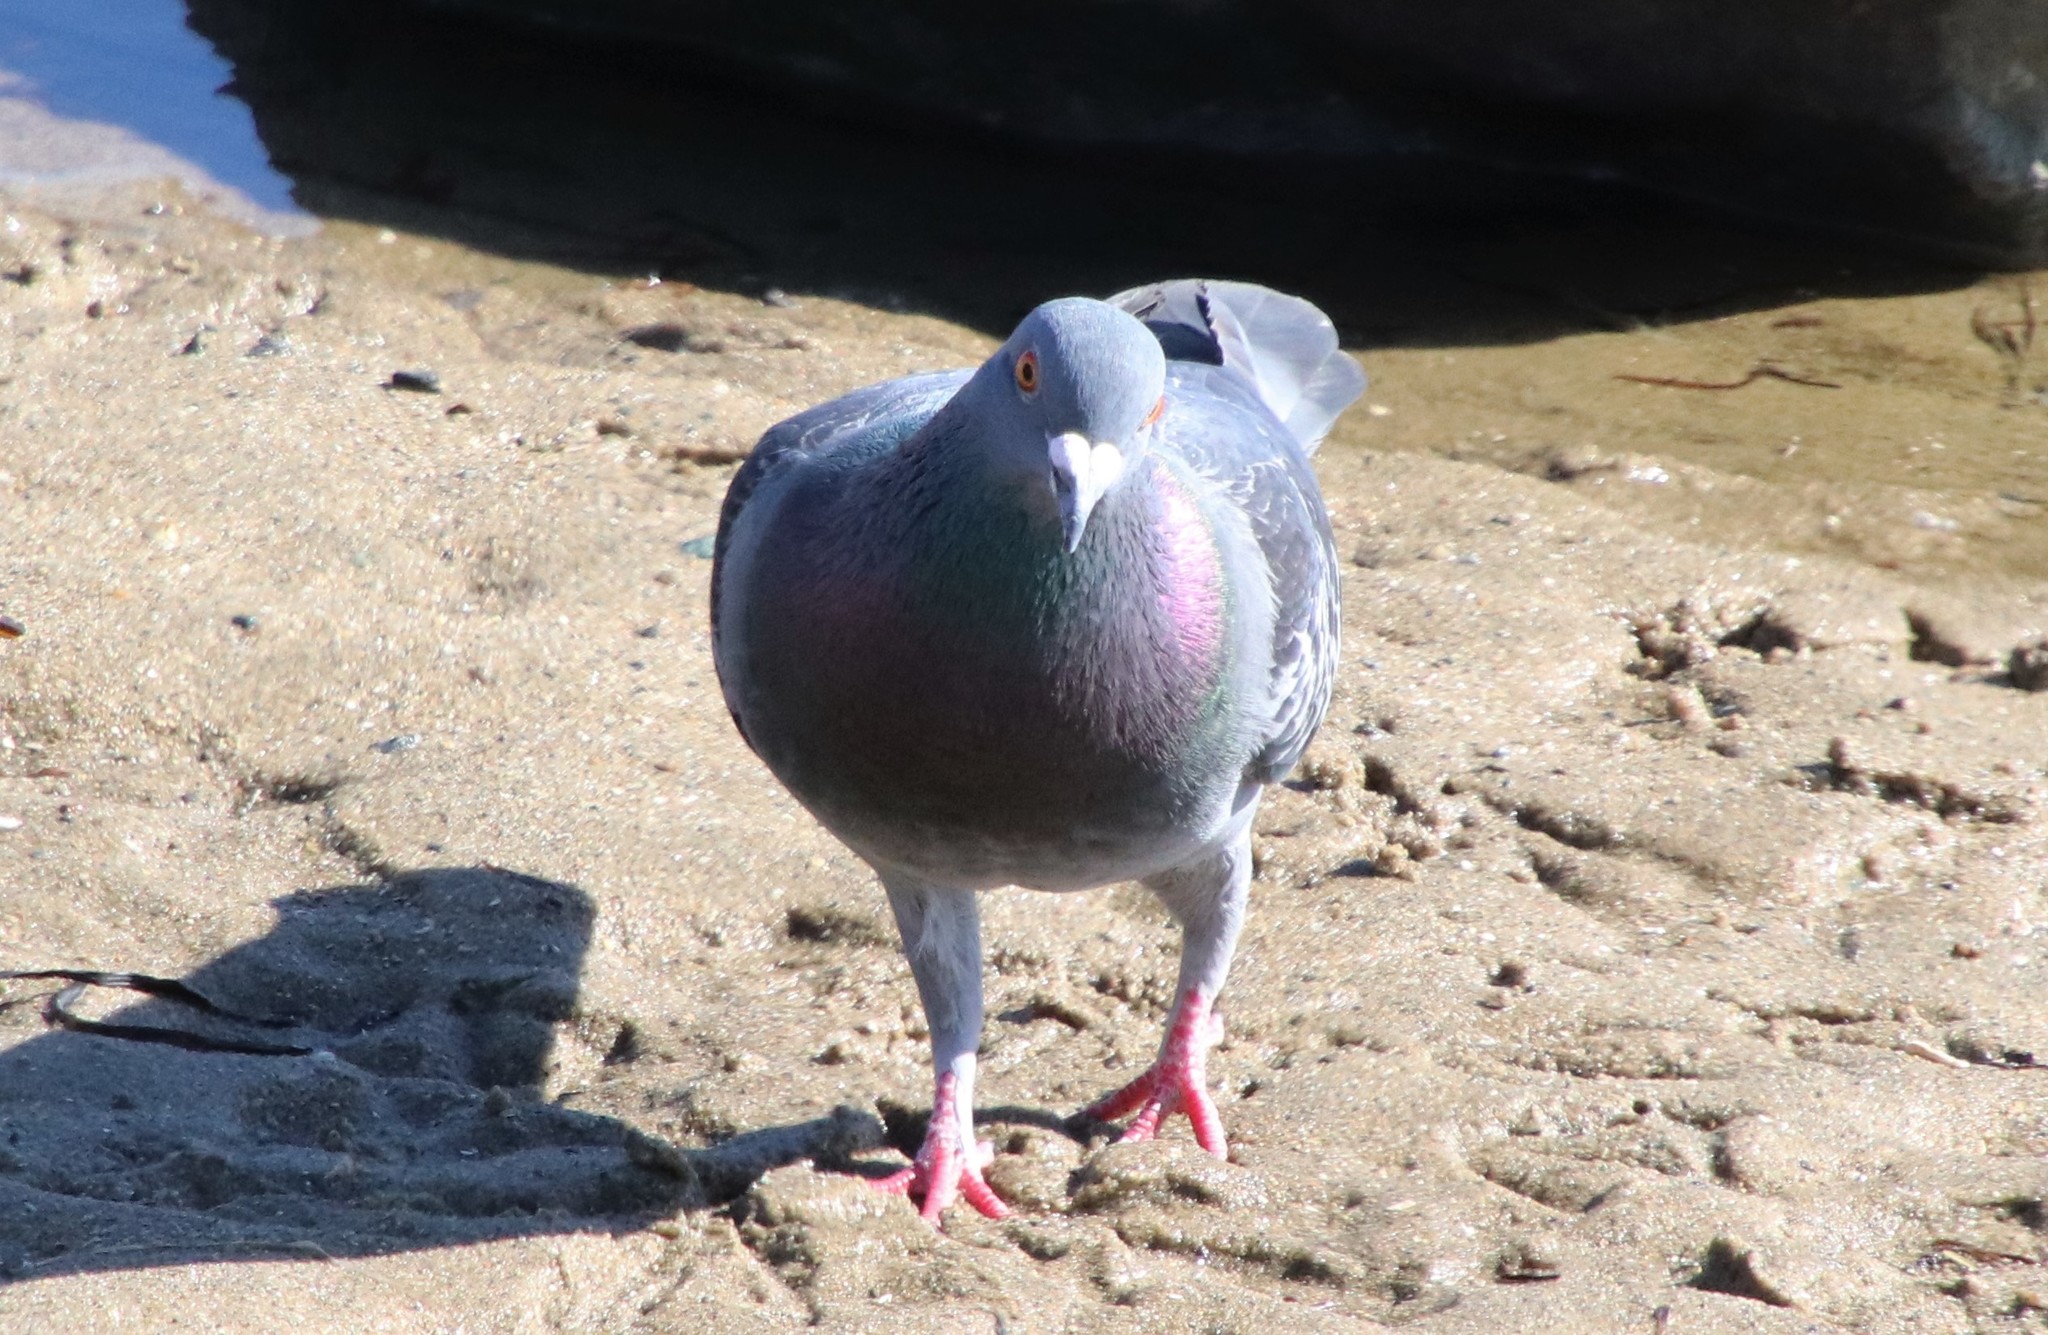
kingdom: Animalia
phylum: Chordata
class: Aves
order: Columbiformes
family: Columbidae
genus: Columba
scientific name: Columba livia
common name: Rock pigeon
